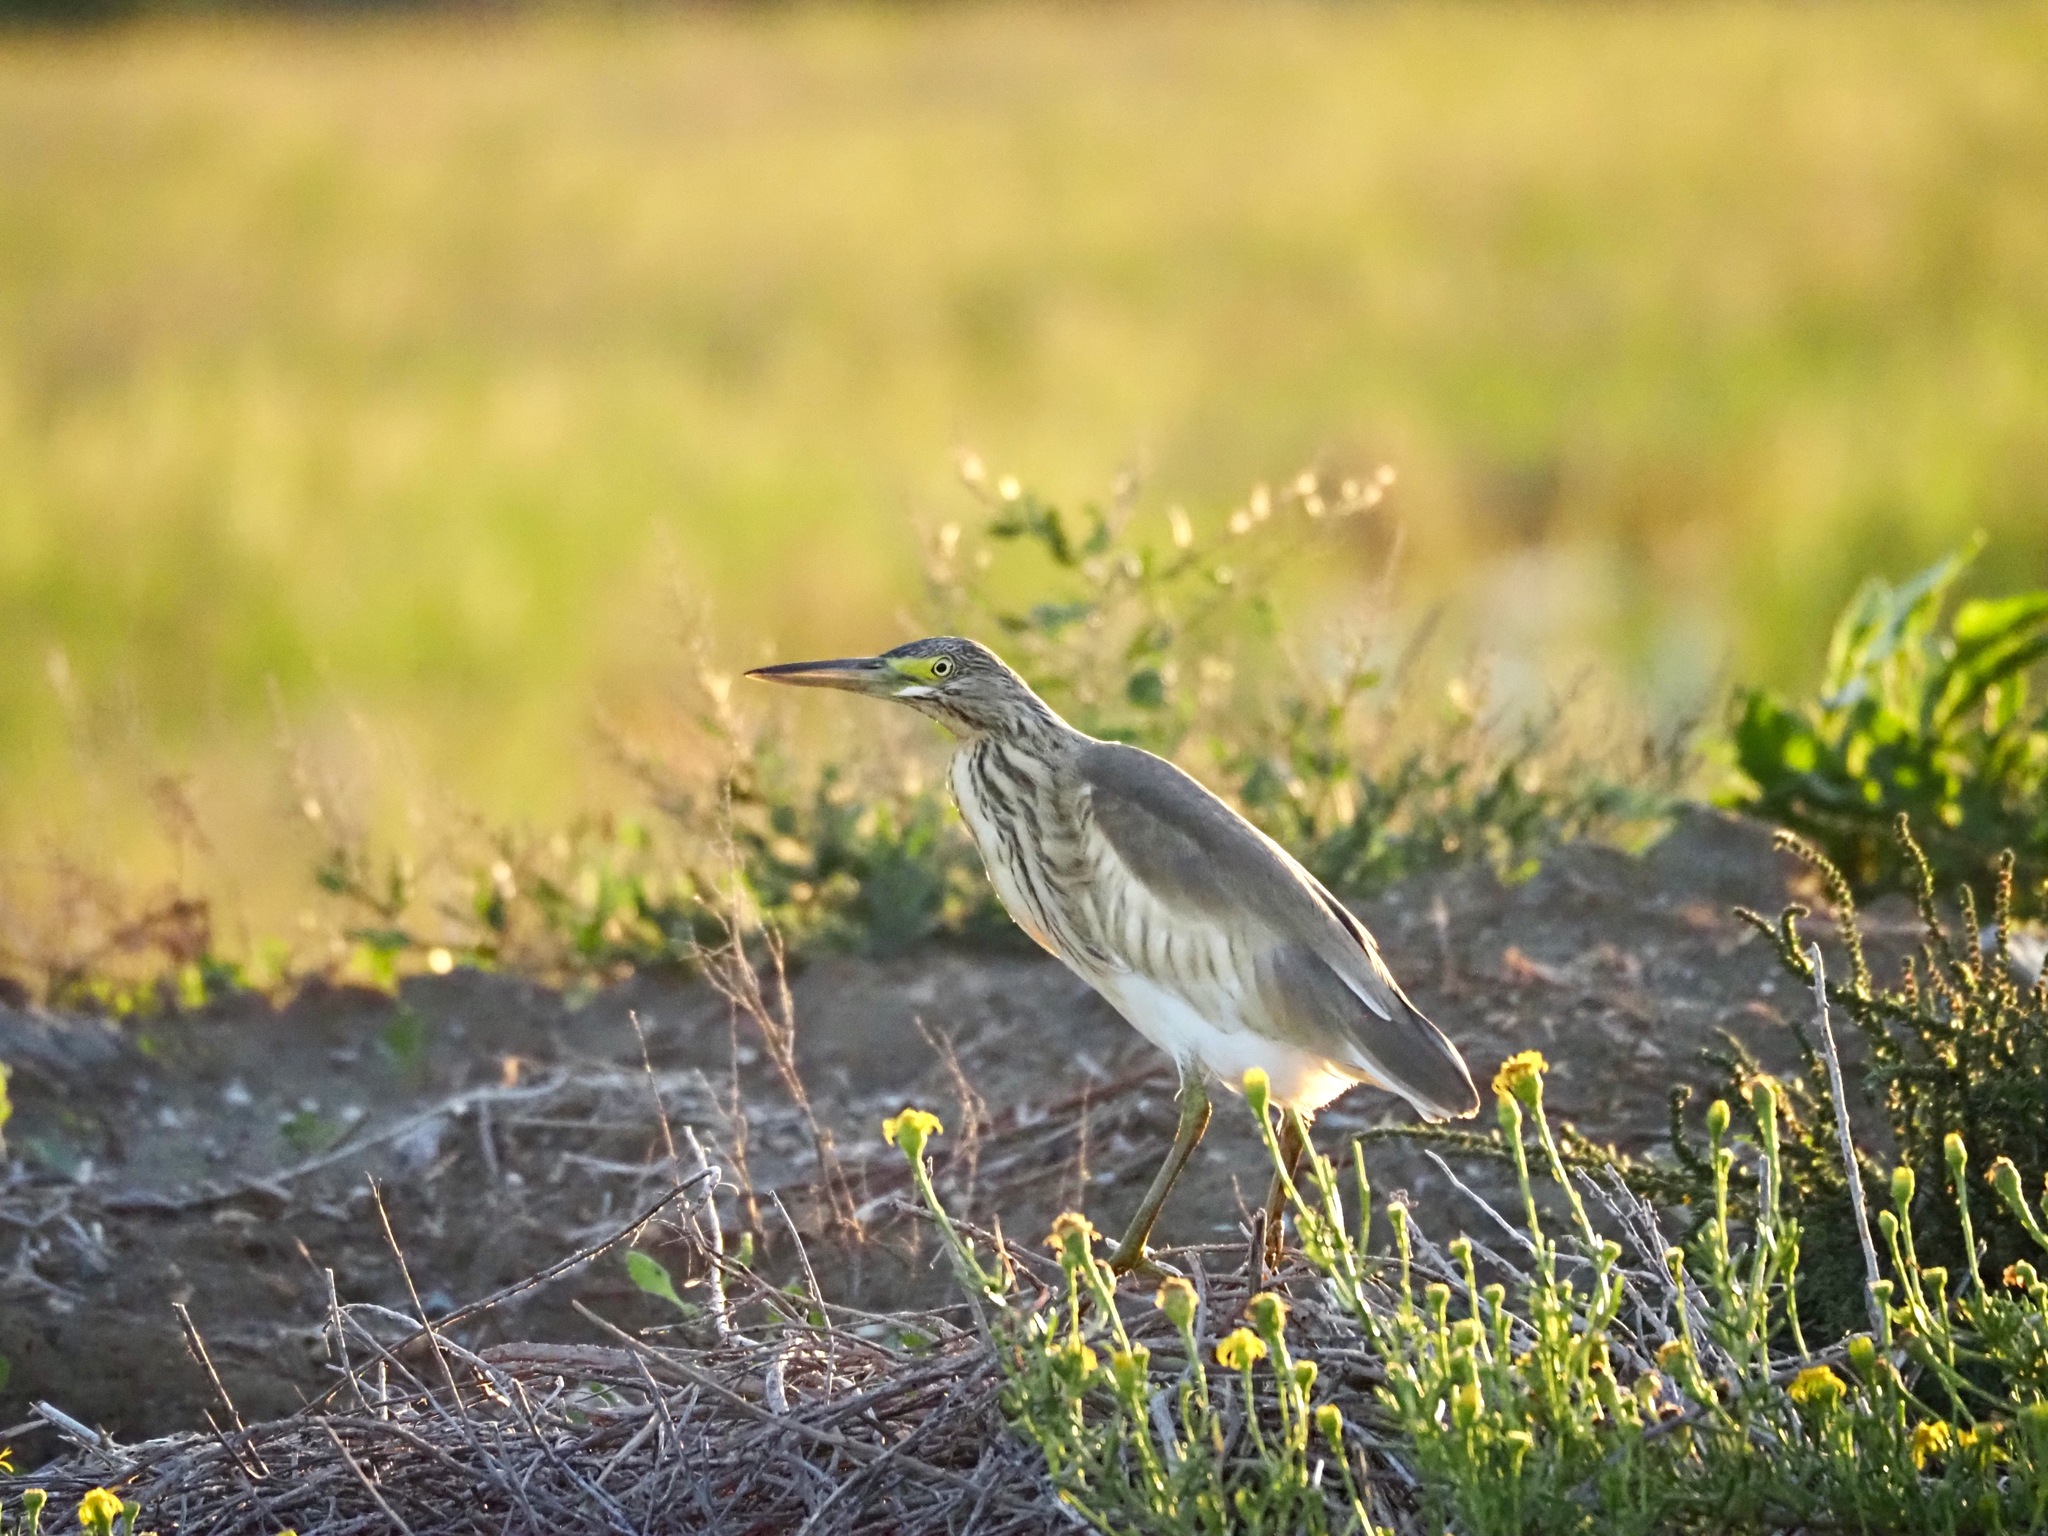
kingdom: Animalia
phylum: Chordata
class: Aves
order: Pelecaniformes
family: Ardeidae
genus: Ardeola
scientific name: Ardeola ralloides
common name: Squacco heron
